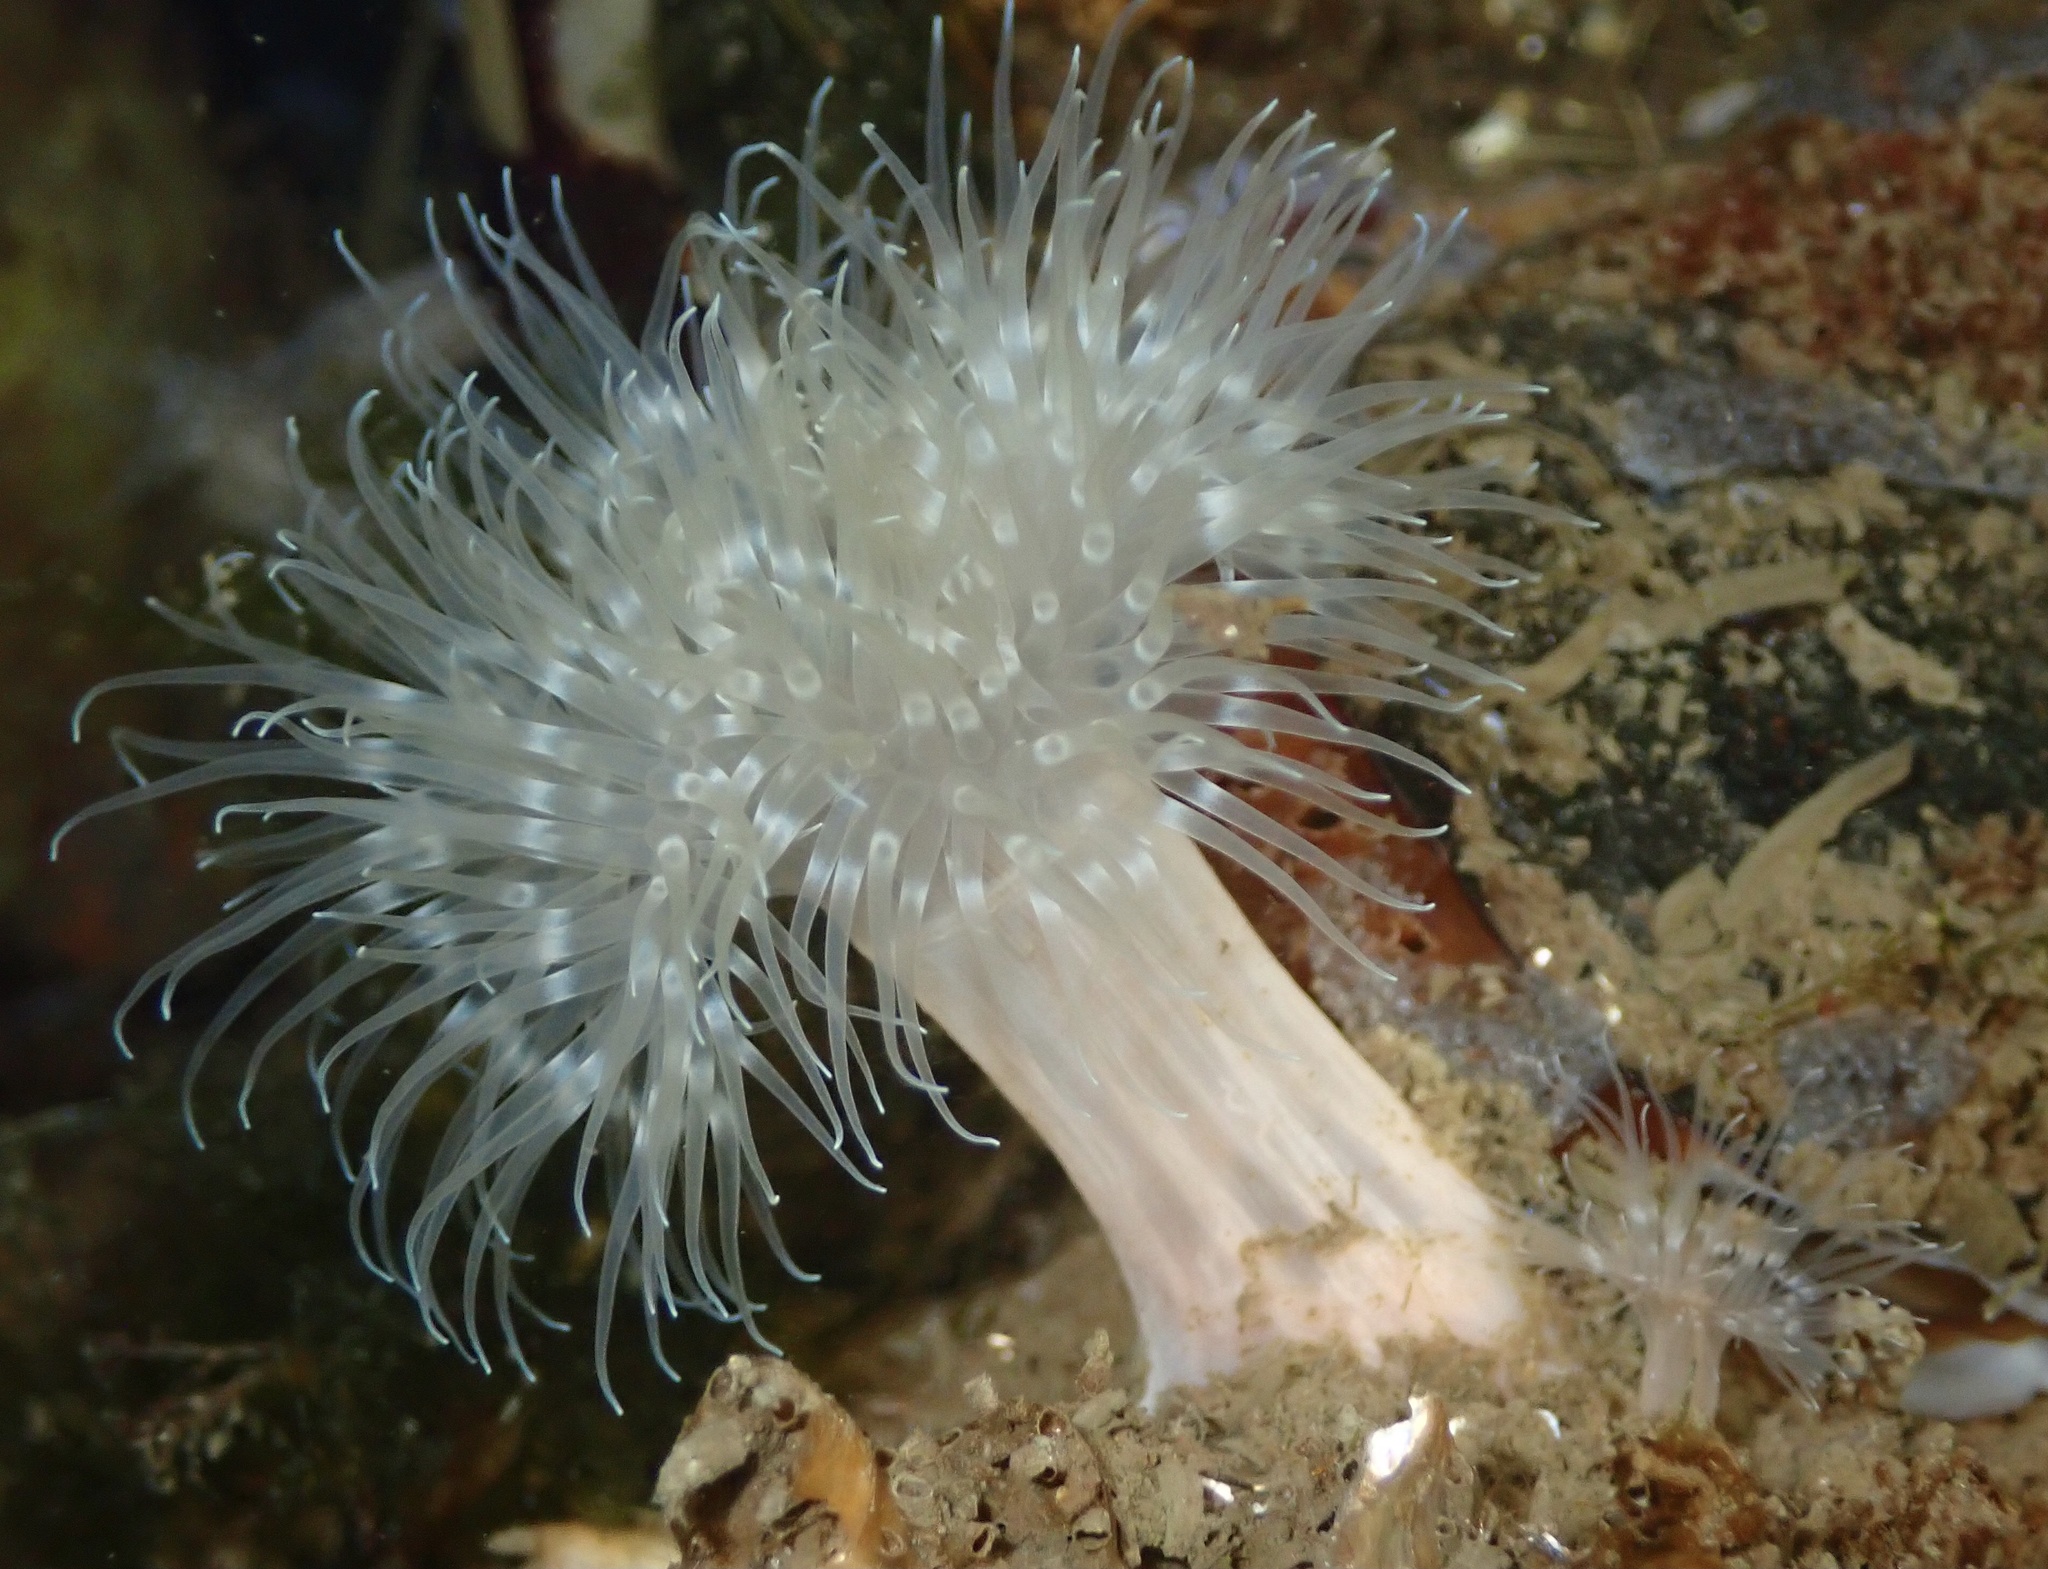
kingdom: Animalia
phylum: Cnidaria
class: Anthozoa
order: Actiniaria
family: Metridiidae
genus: Metridium
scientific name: Metridium senile
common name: Clonal plumose anemone
